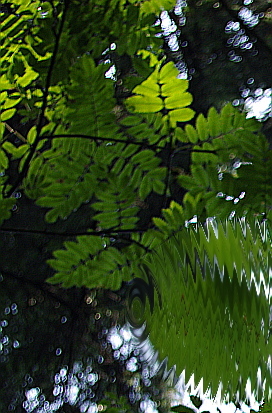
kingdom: Plantae
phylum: Tracheophyta
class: Magnoliopsida
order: Rosales
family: Rosaceae
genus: Sorbus
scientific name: Sorbus aucuparia
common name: Rowan
